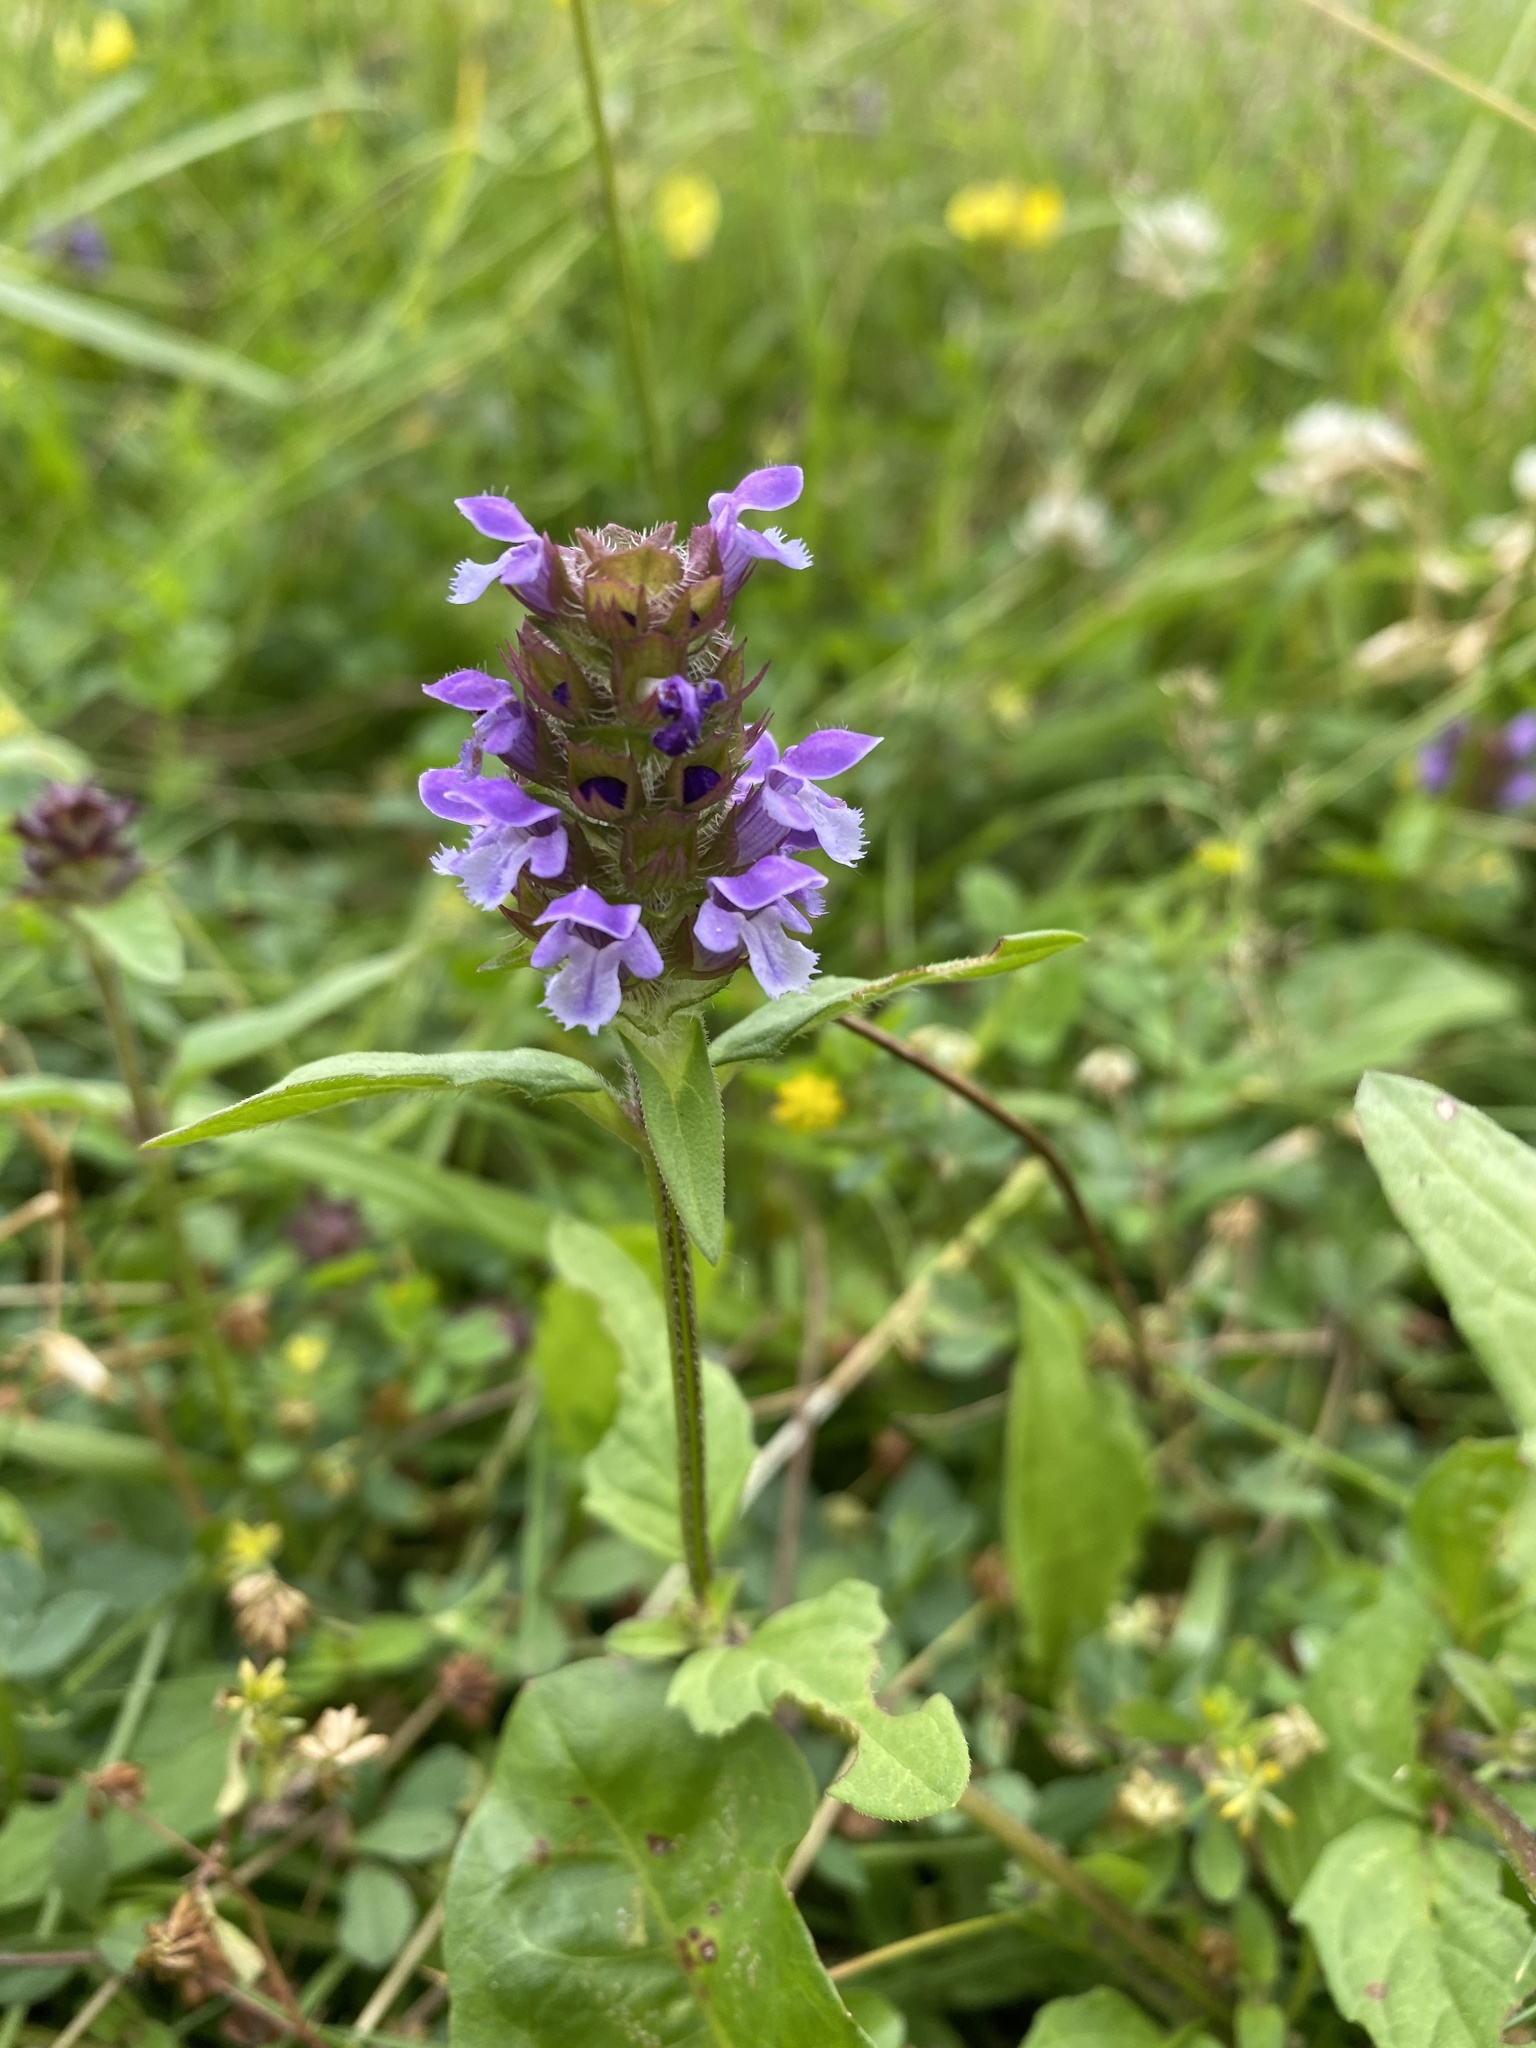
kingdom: Plantae
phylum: Tracheophyta
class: Magnoliopsida
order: Lamiales
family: Lamiaceae
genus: Prunella
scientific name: Prunella vulgaris
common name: Heal-all
